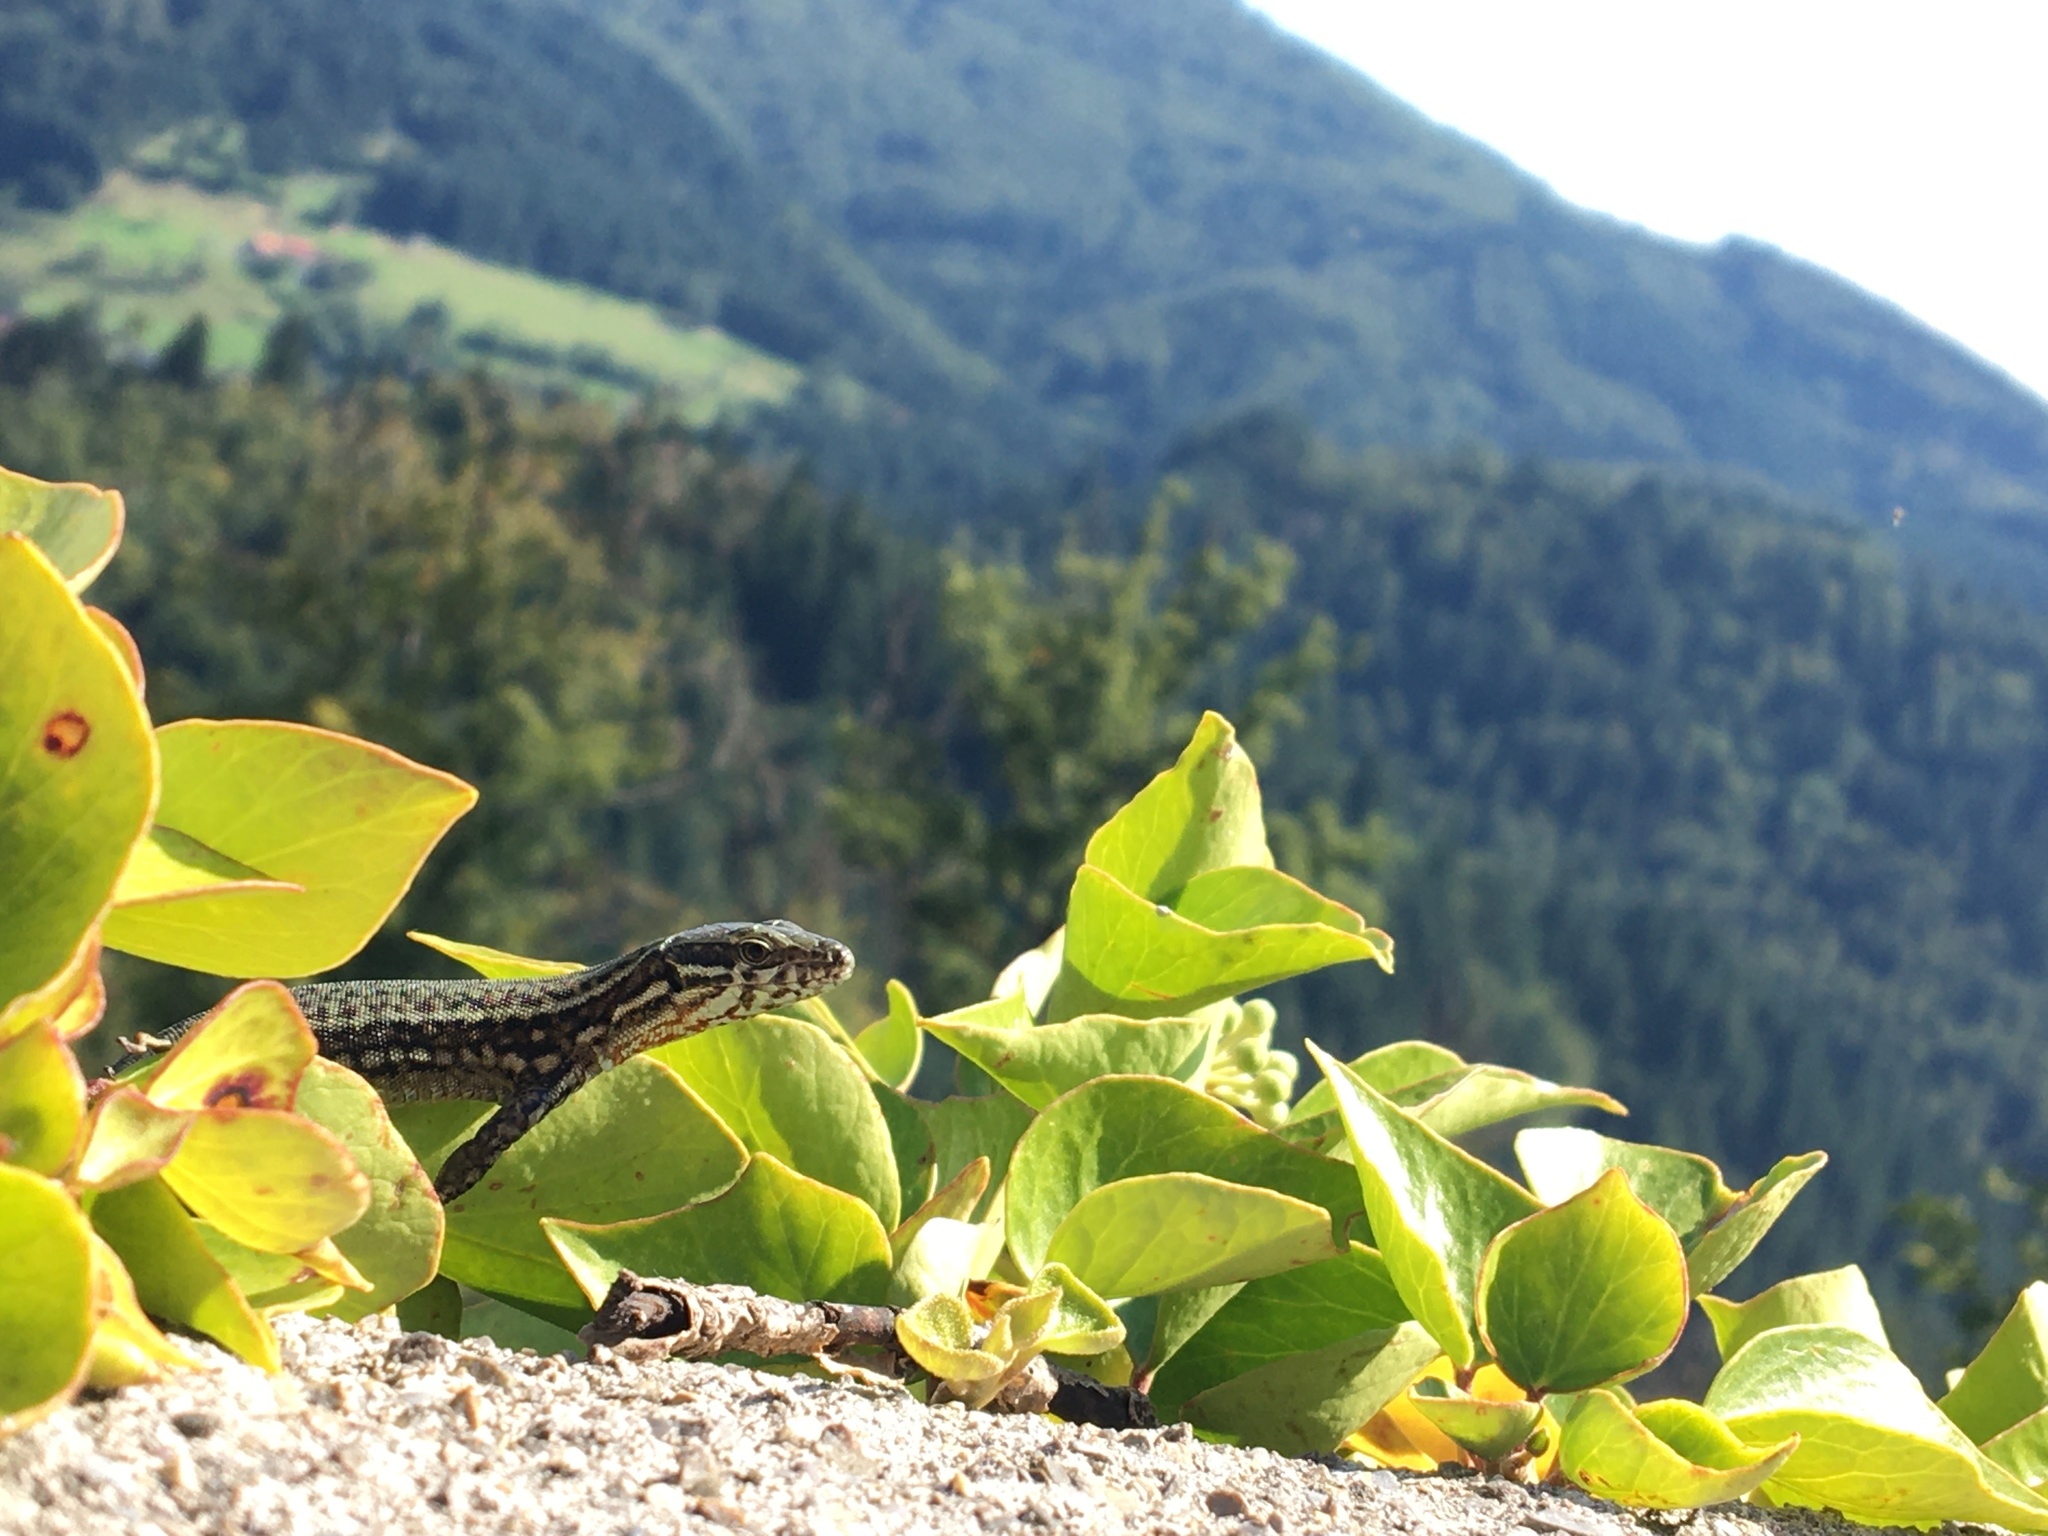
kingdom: Animalia
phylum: Chordata
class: Squamata
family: Lacertidae
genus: Podarcis
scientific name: Podarcis muralis
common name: Common wall lizard
